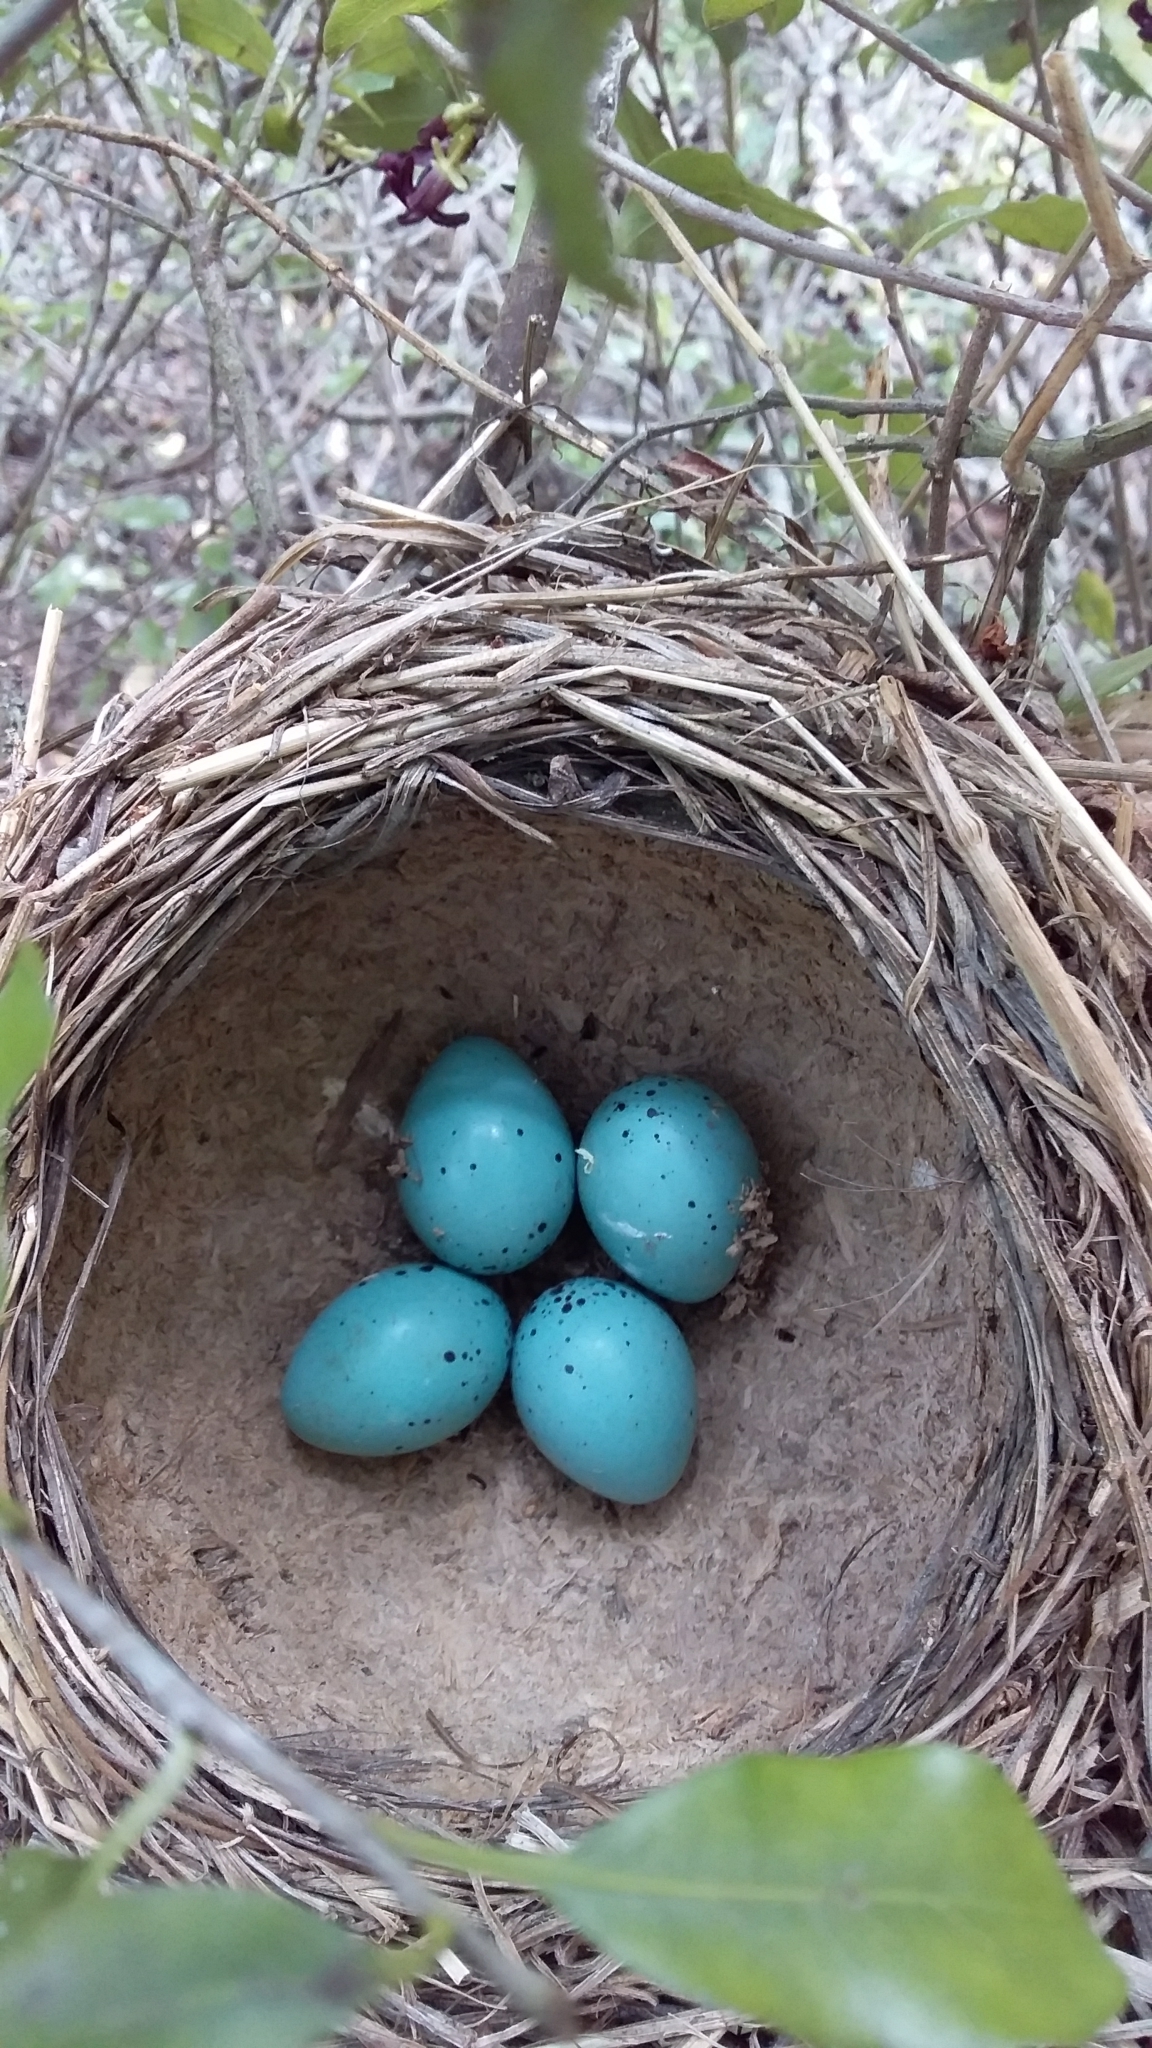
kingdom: Animalia
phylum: Chordata
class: Aves
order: Passeriformes
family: Turdidae
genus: Turdus
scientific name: Turdus philomelos
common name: Song thrush
